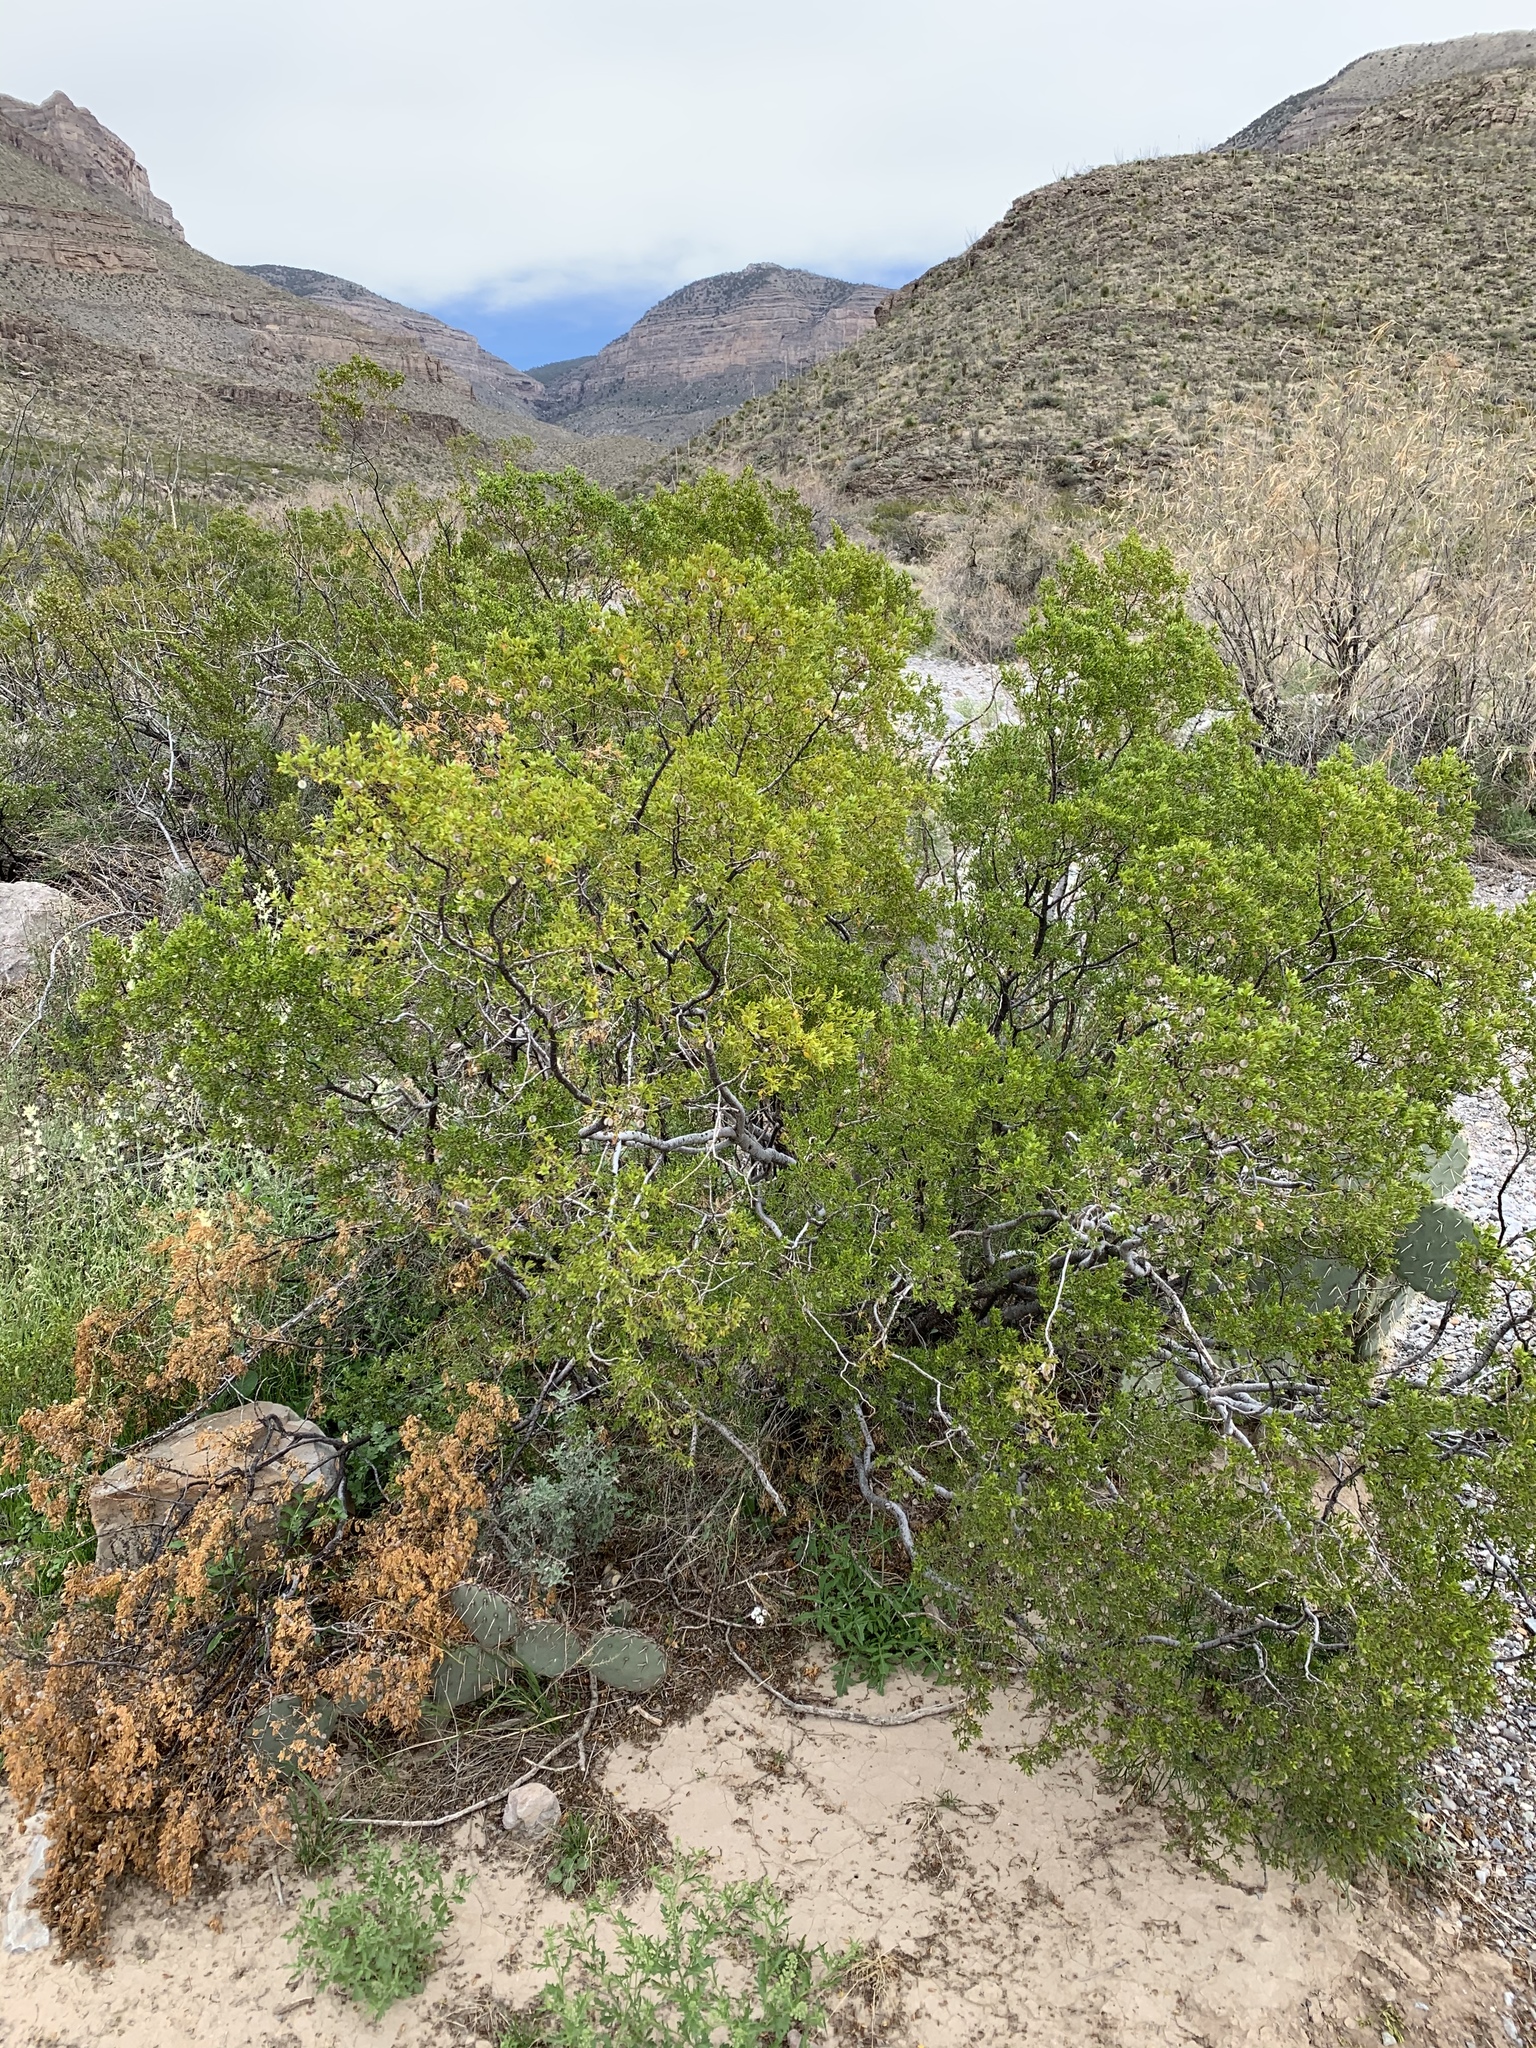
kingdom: Plantae
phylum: Tracheophyta
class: Magnoliopsida
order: Zygophyllales
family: Zygophyllaceae
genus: Larrea
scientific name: Larrea tridentata
